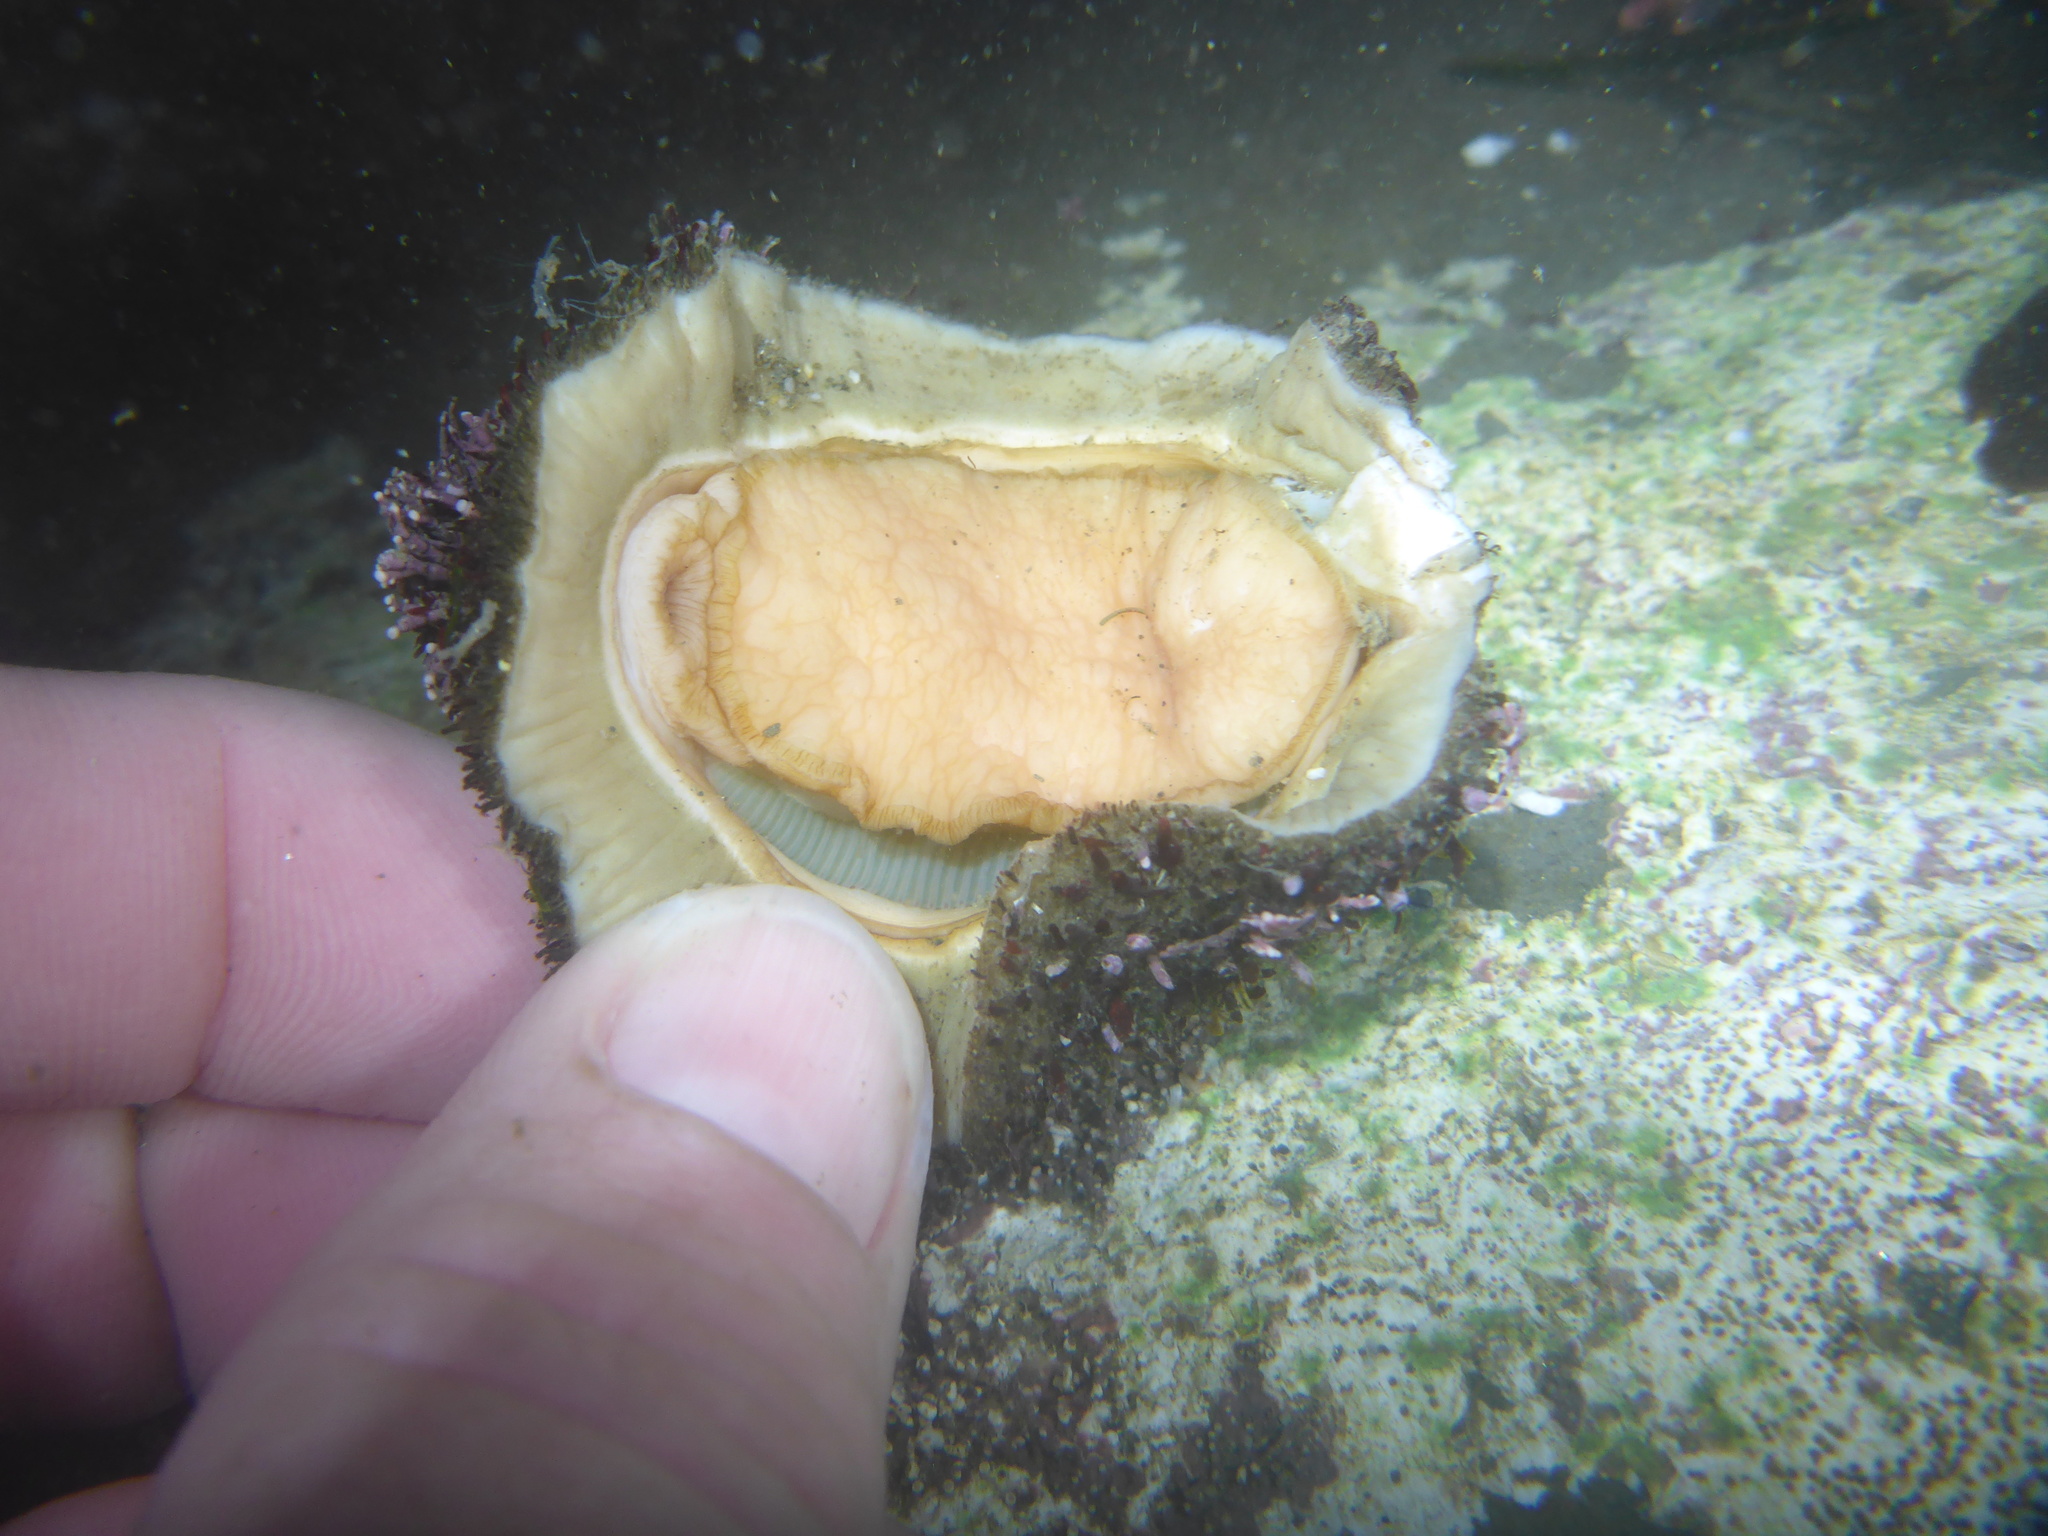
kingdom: Animalia
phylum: Mollusca
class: Polyplacophora
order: Chitonida
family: Mopaliidae
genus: Mopalia
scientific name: Mopalia muscosa
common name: Mossy chiton
